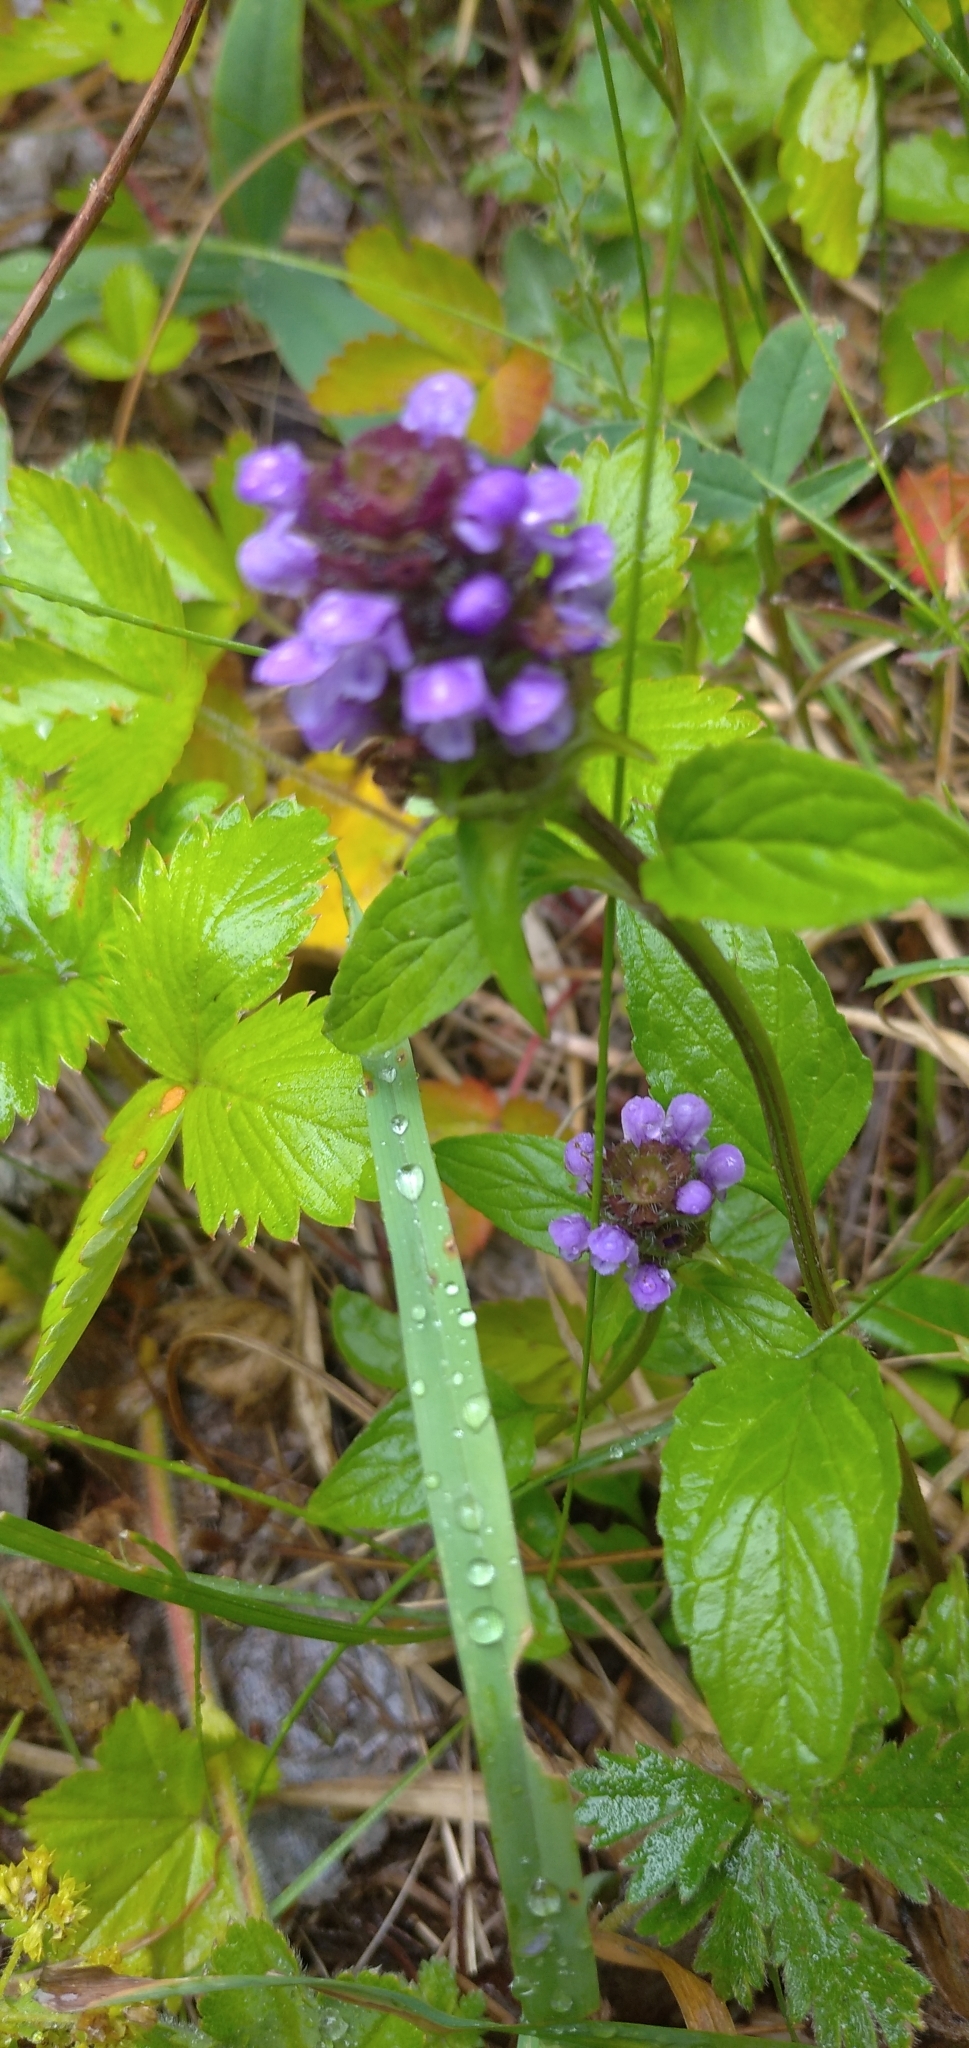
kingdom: Plantae
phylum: Tracheophyta
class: Magnoliopsida
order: Lamiales
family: Lamiaceae
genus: Prunella
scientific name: Prunella vulgaris
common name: Heal-all
